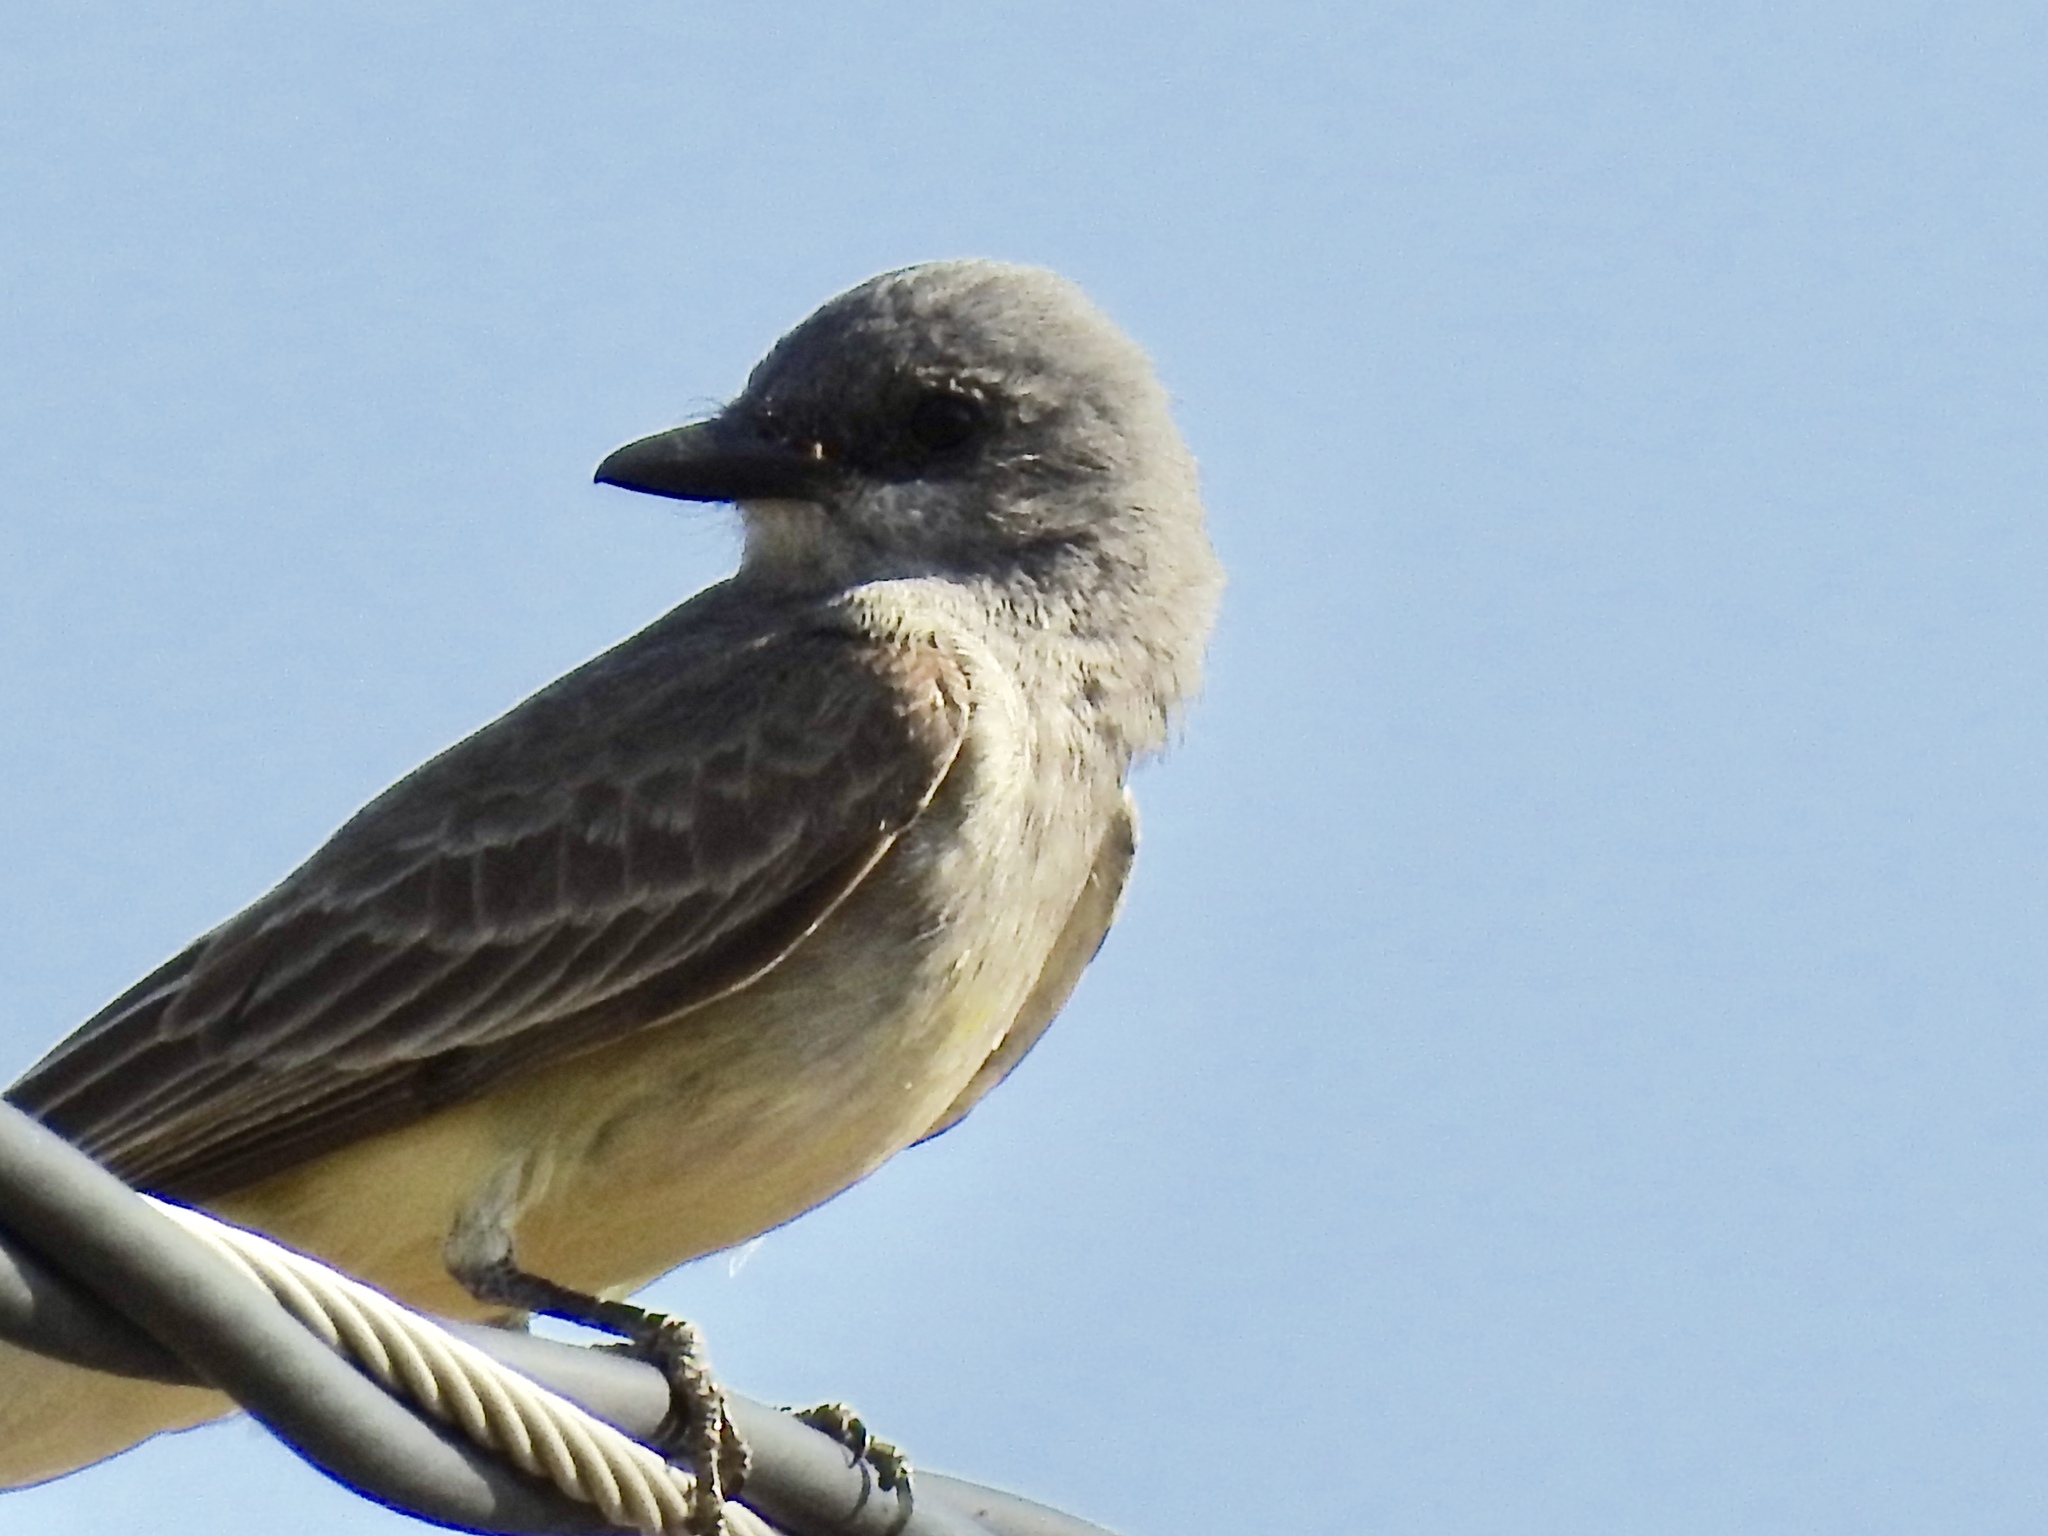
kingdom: Animalia
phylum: Chordata
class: Aves
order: Passeriformes
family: Tyrannidae
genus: Tyrannus
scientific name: Tyrannus vociferans
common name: Cassin's kingbird
